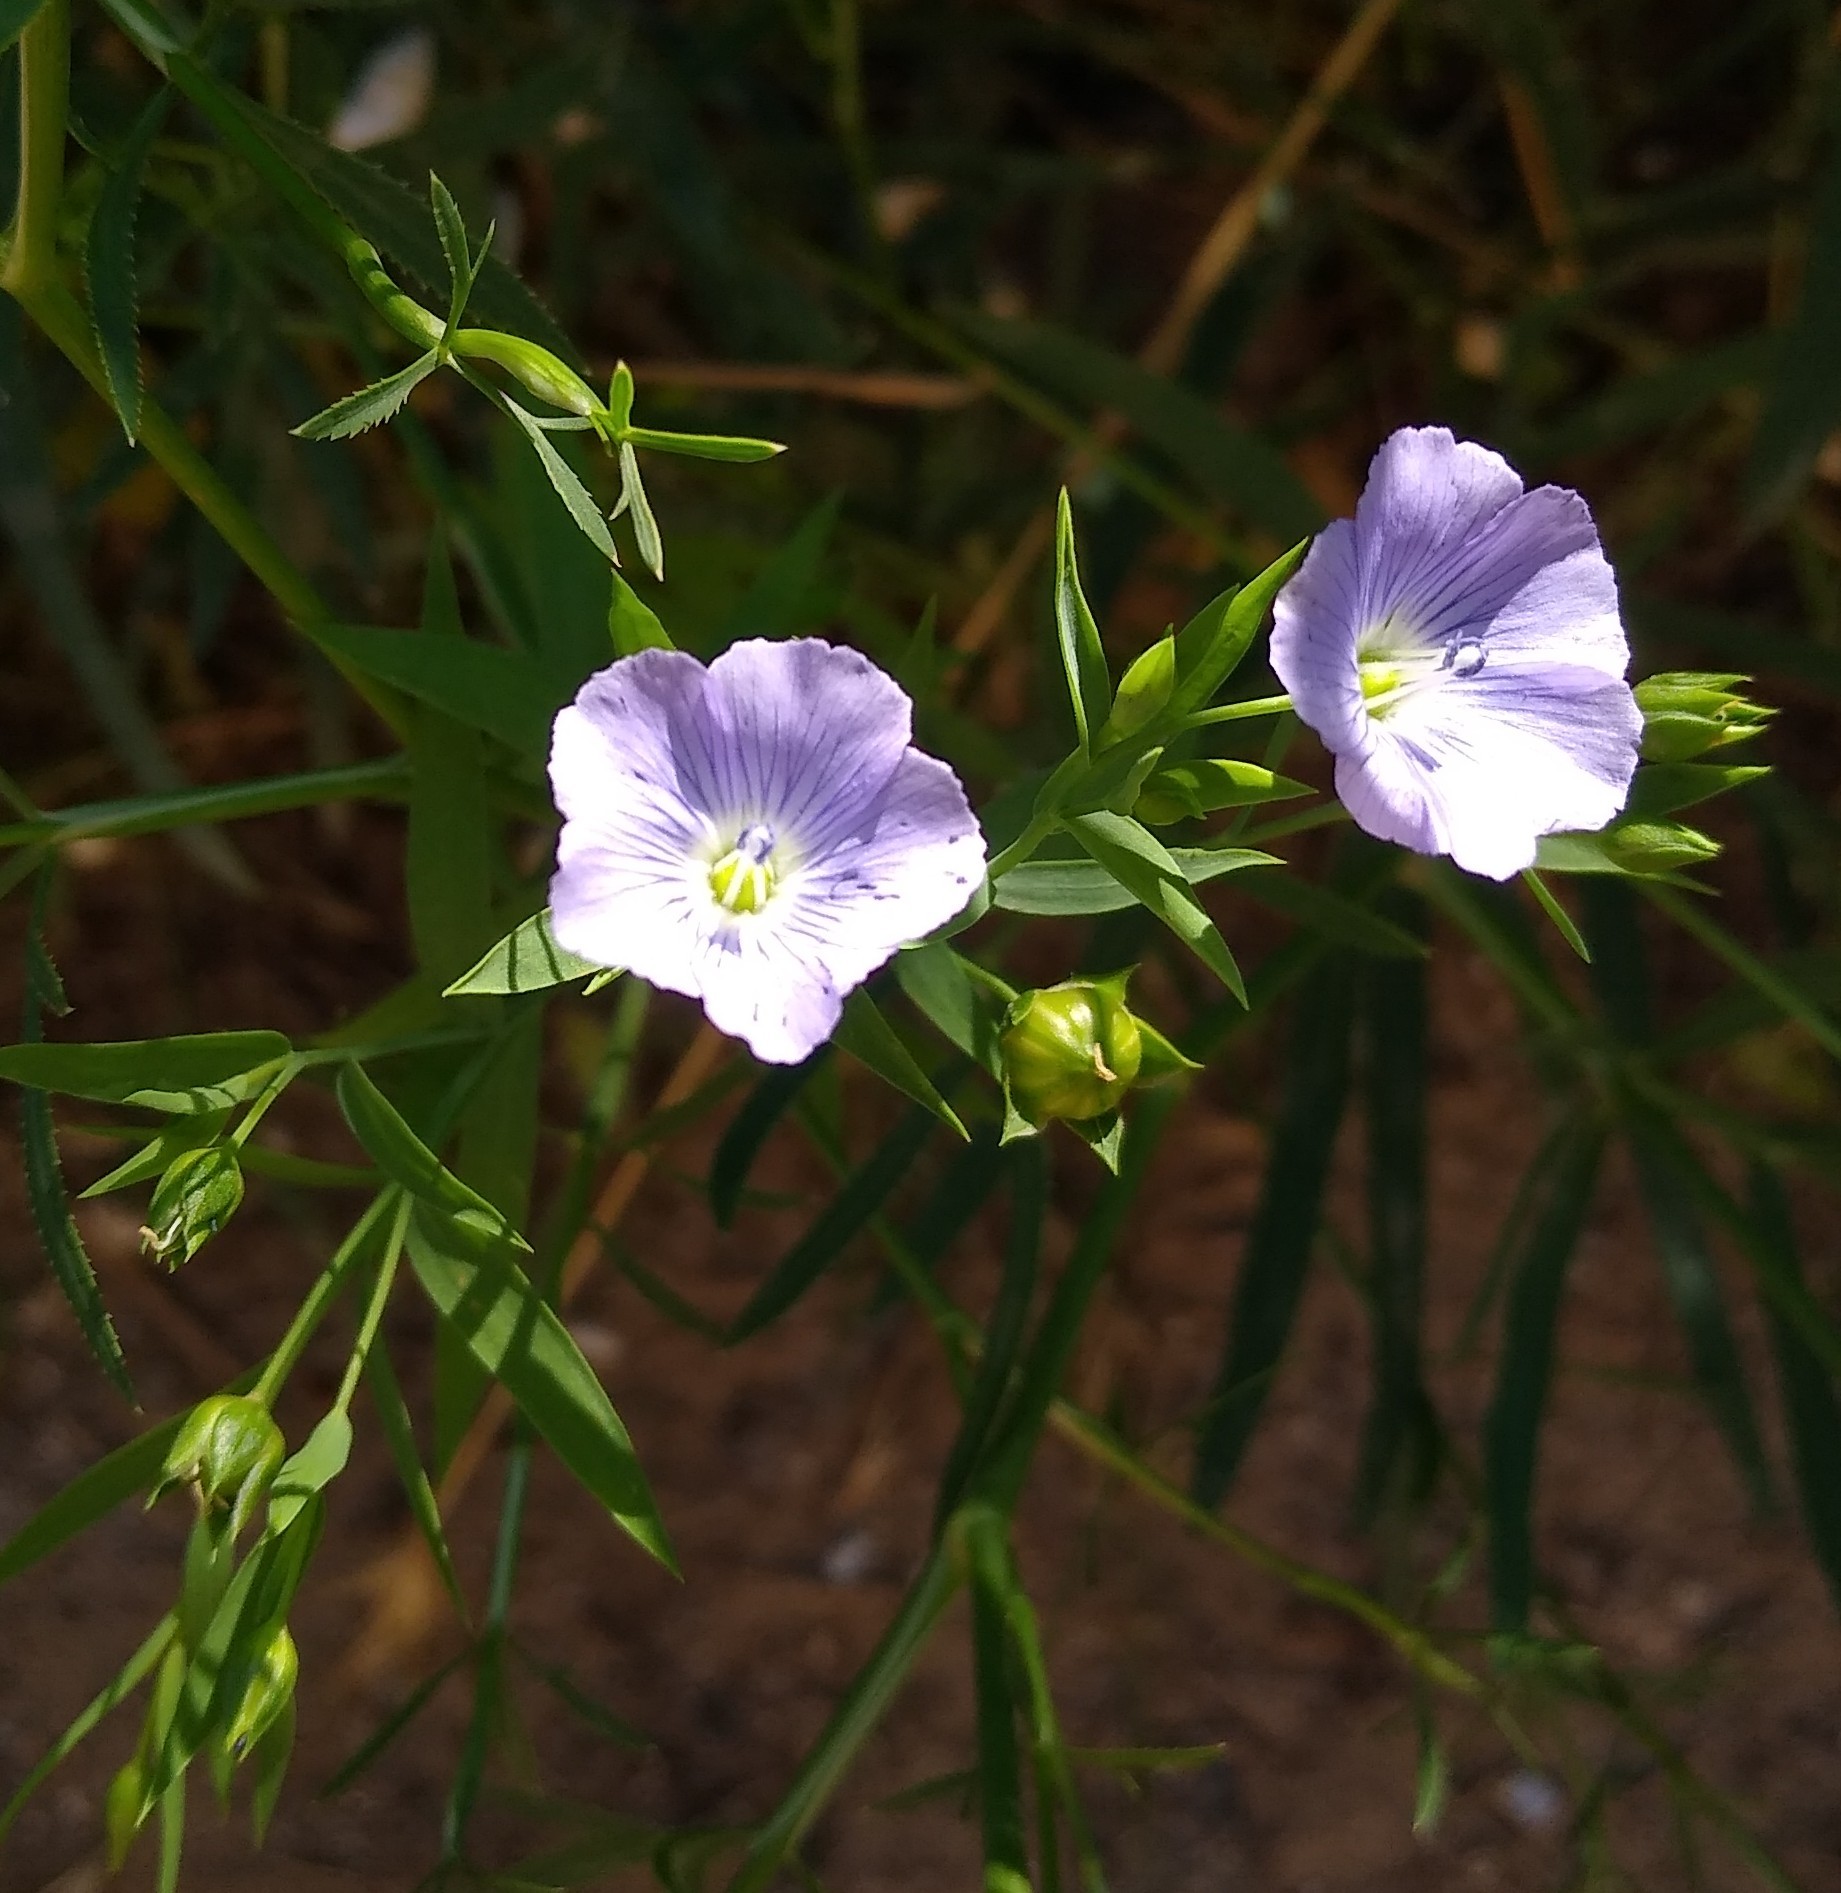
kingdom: Plantae
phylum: Tracheophyta
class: Magnoliopsida
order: Malpighiales
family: Linaceae
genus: Linum
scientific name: Linum usitatissimum
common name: Flax
